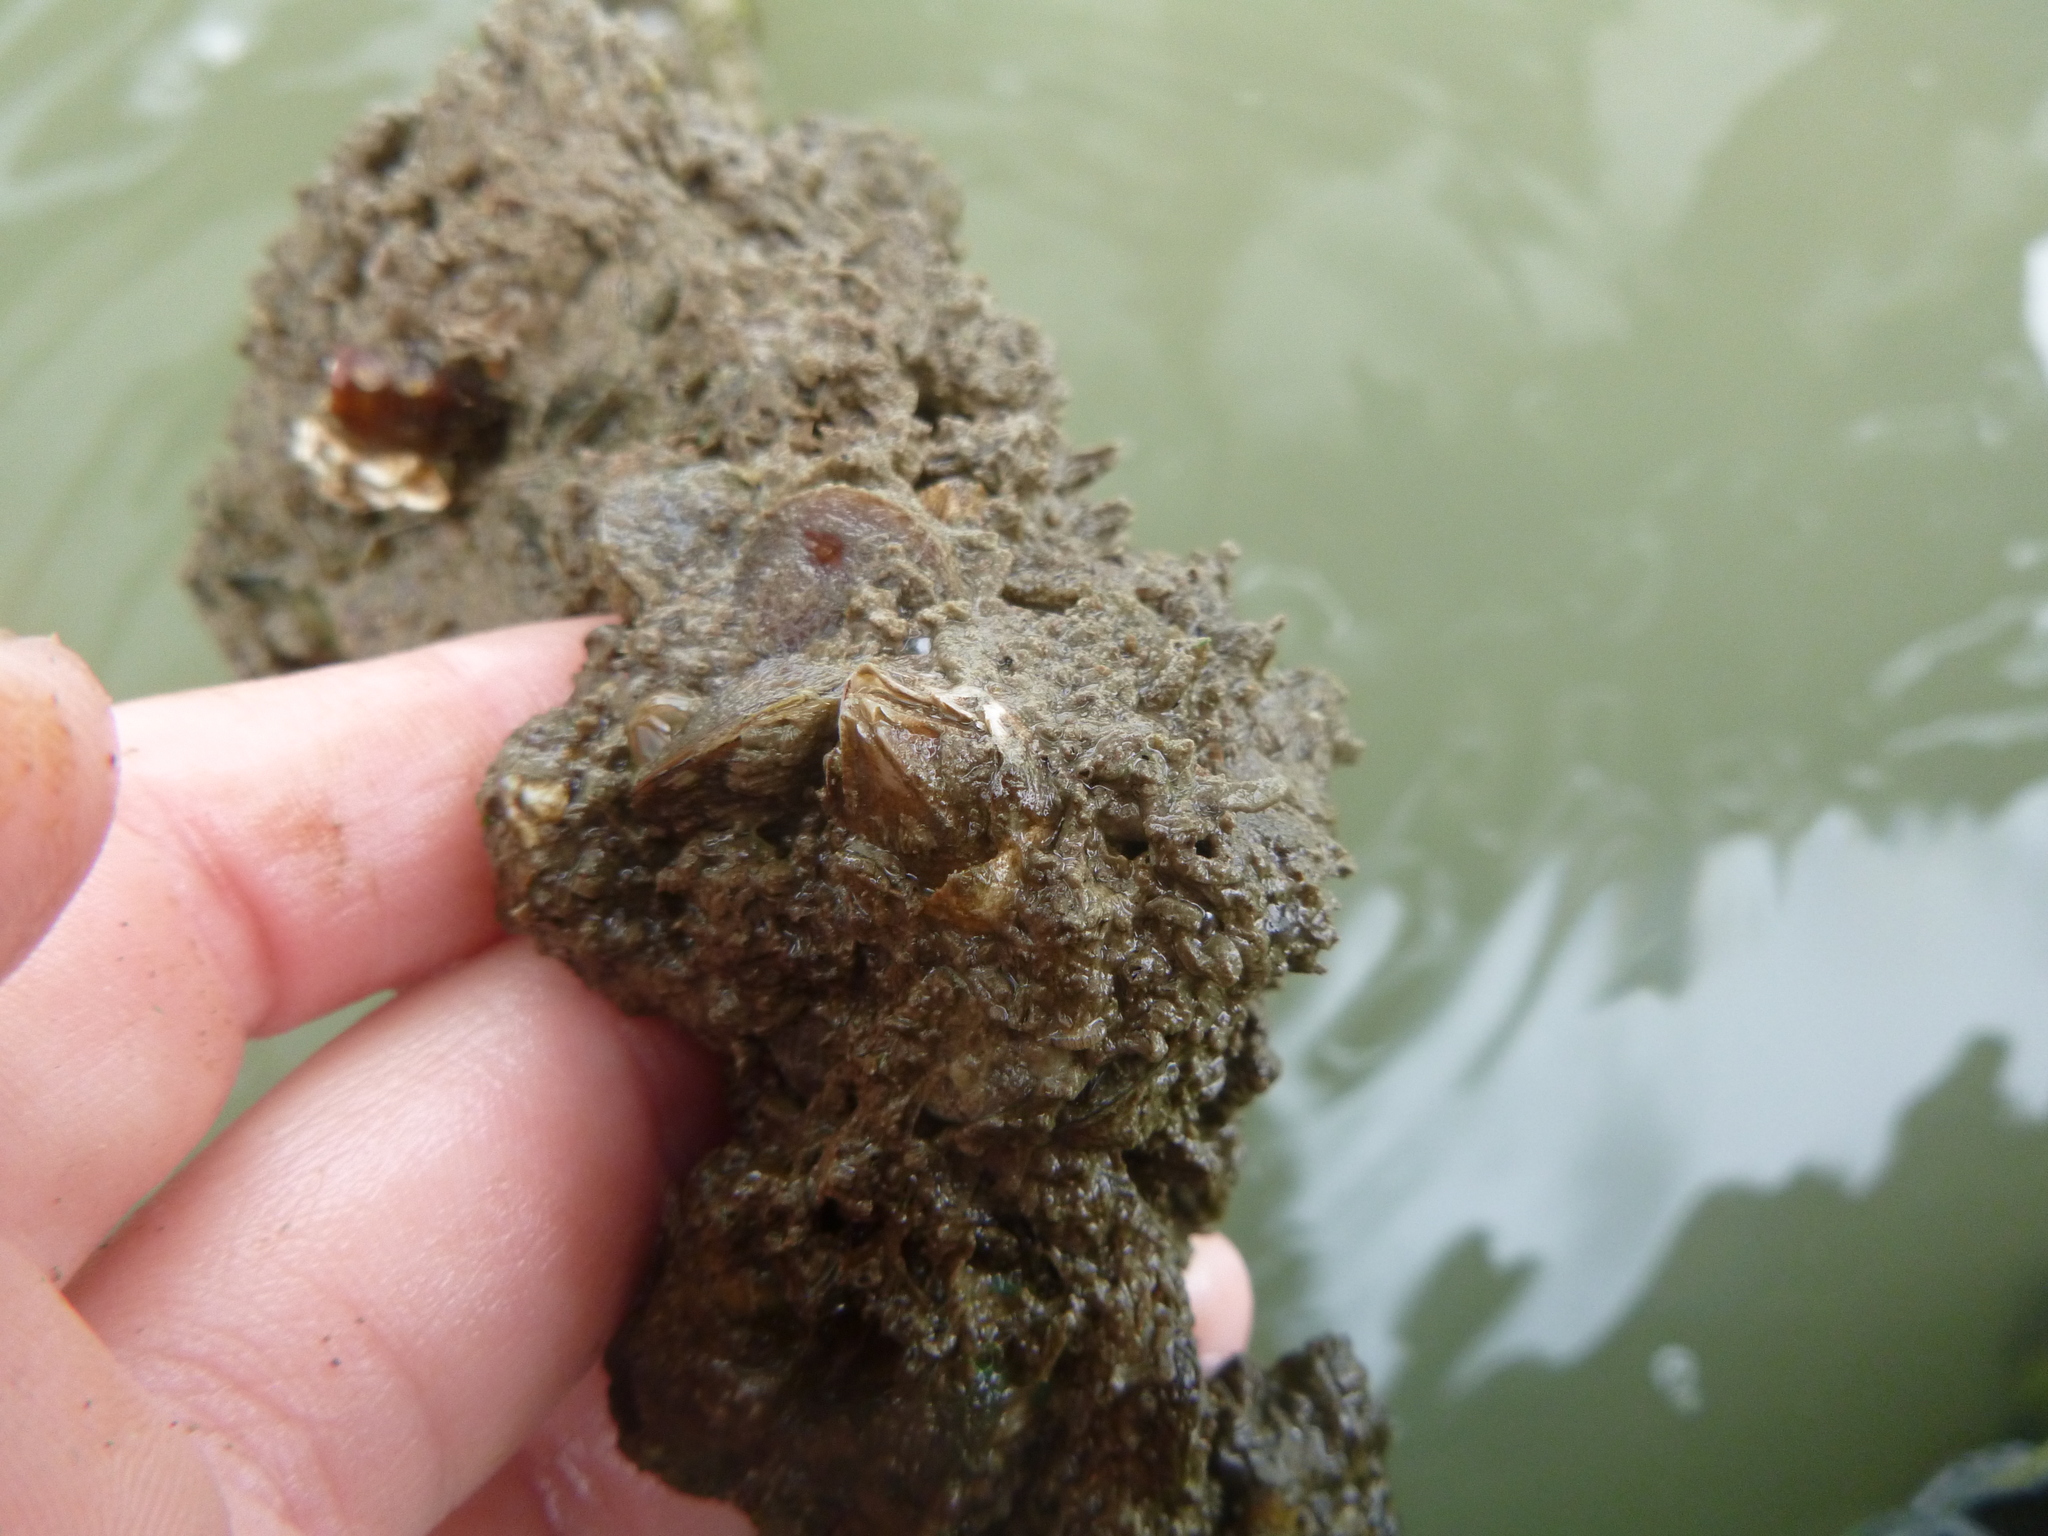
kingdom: Animalia
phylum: Arthropoda
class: Maxillopoda
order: Sessilia
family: Balanidae
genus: Fistulobalanus
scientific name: Fistulobalanus kondakovi
